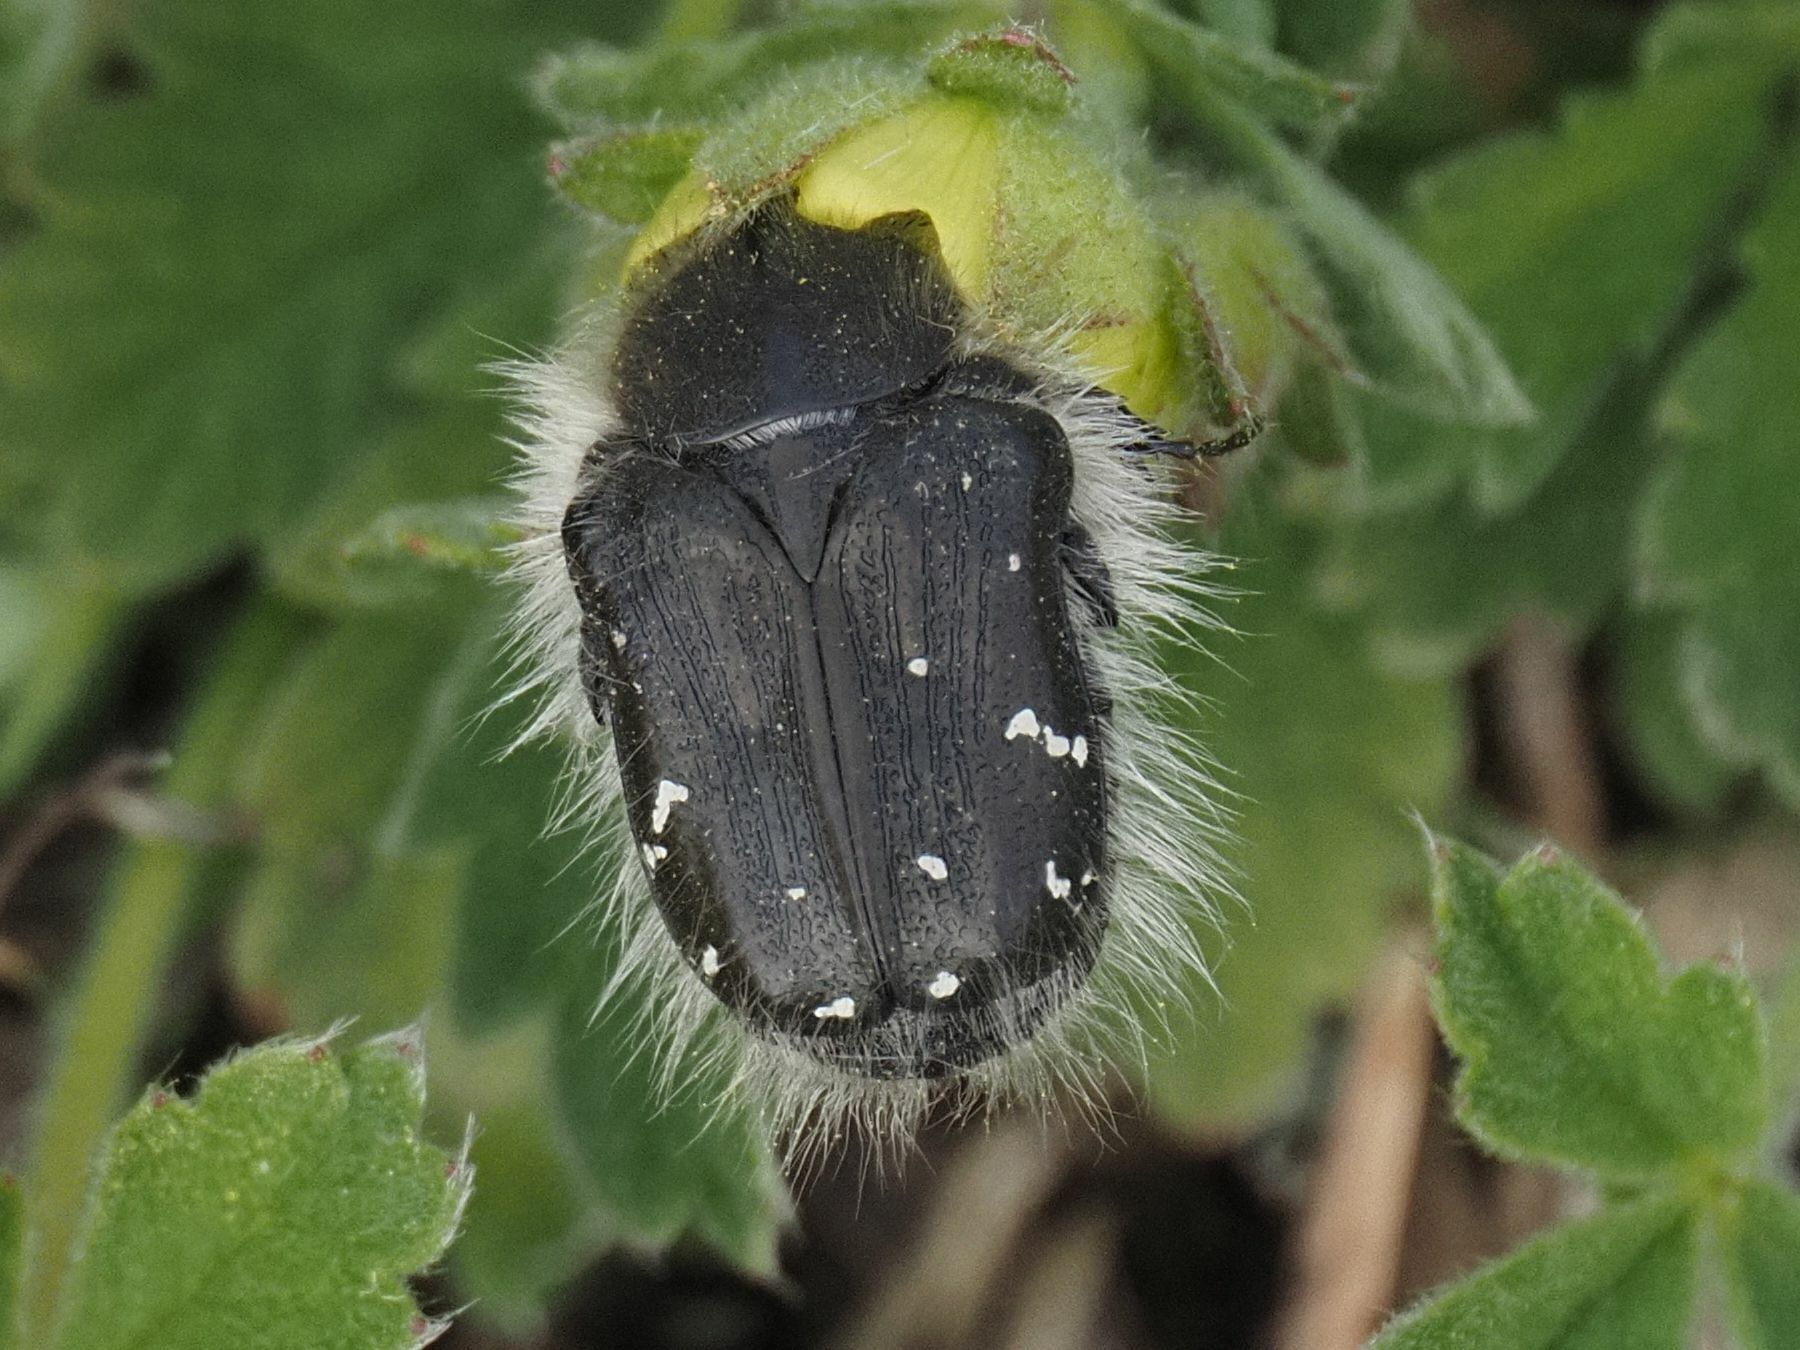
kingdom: Animalia
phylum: Arthropoda
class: Insecta
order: Coleoptera
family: Scarabaeidae
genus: Tropinota
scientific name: Tropinota hirta
